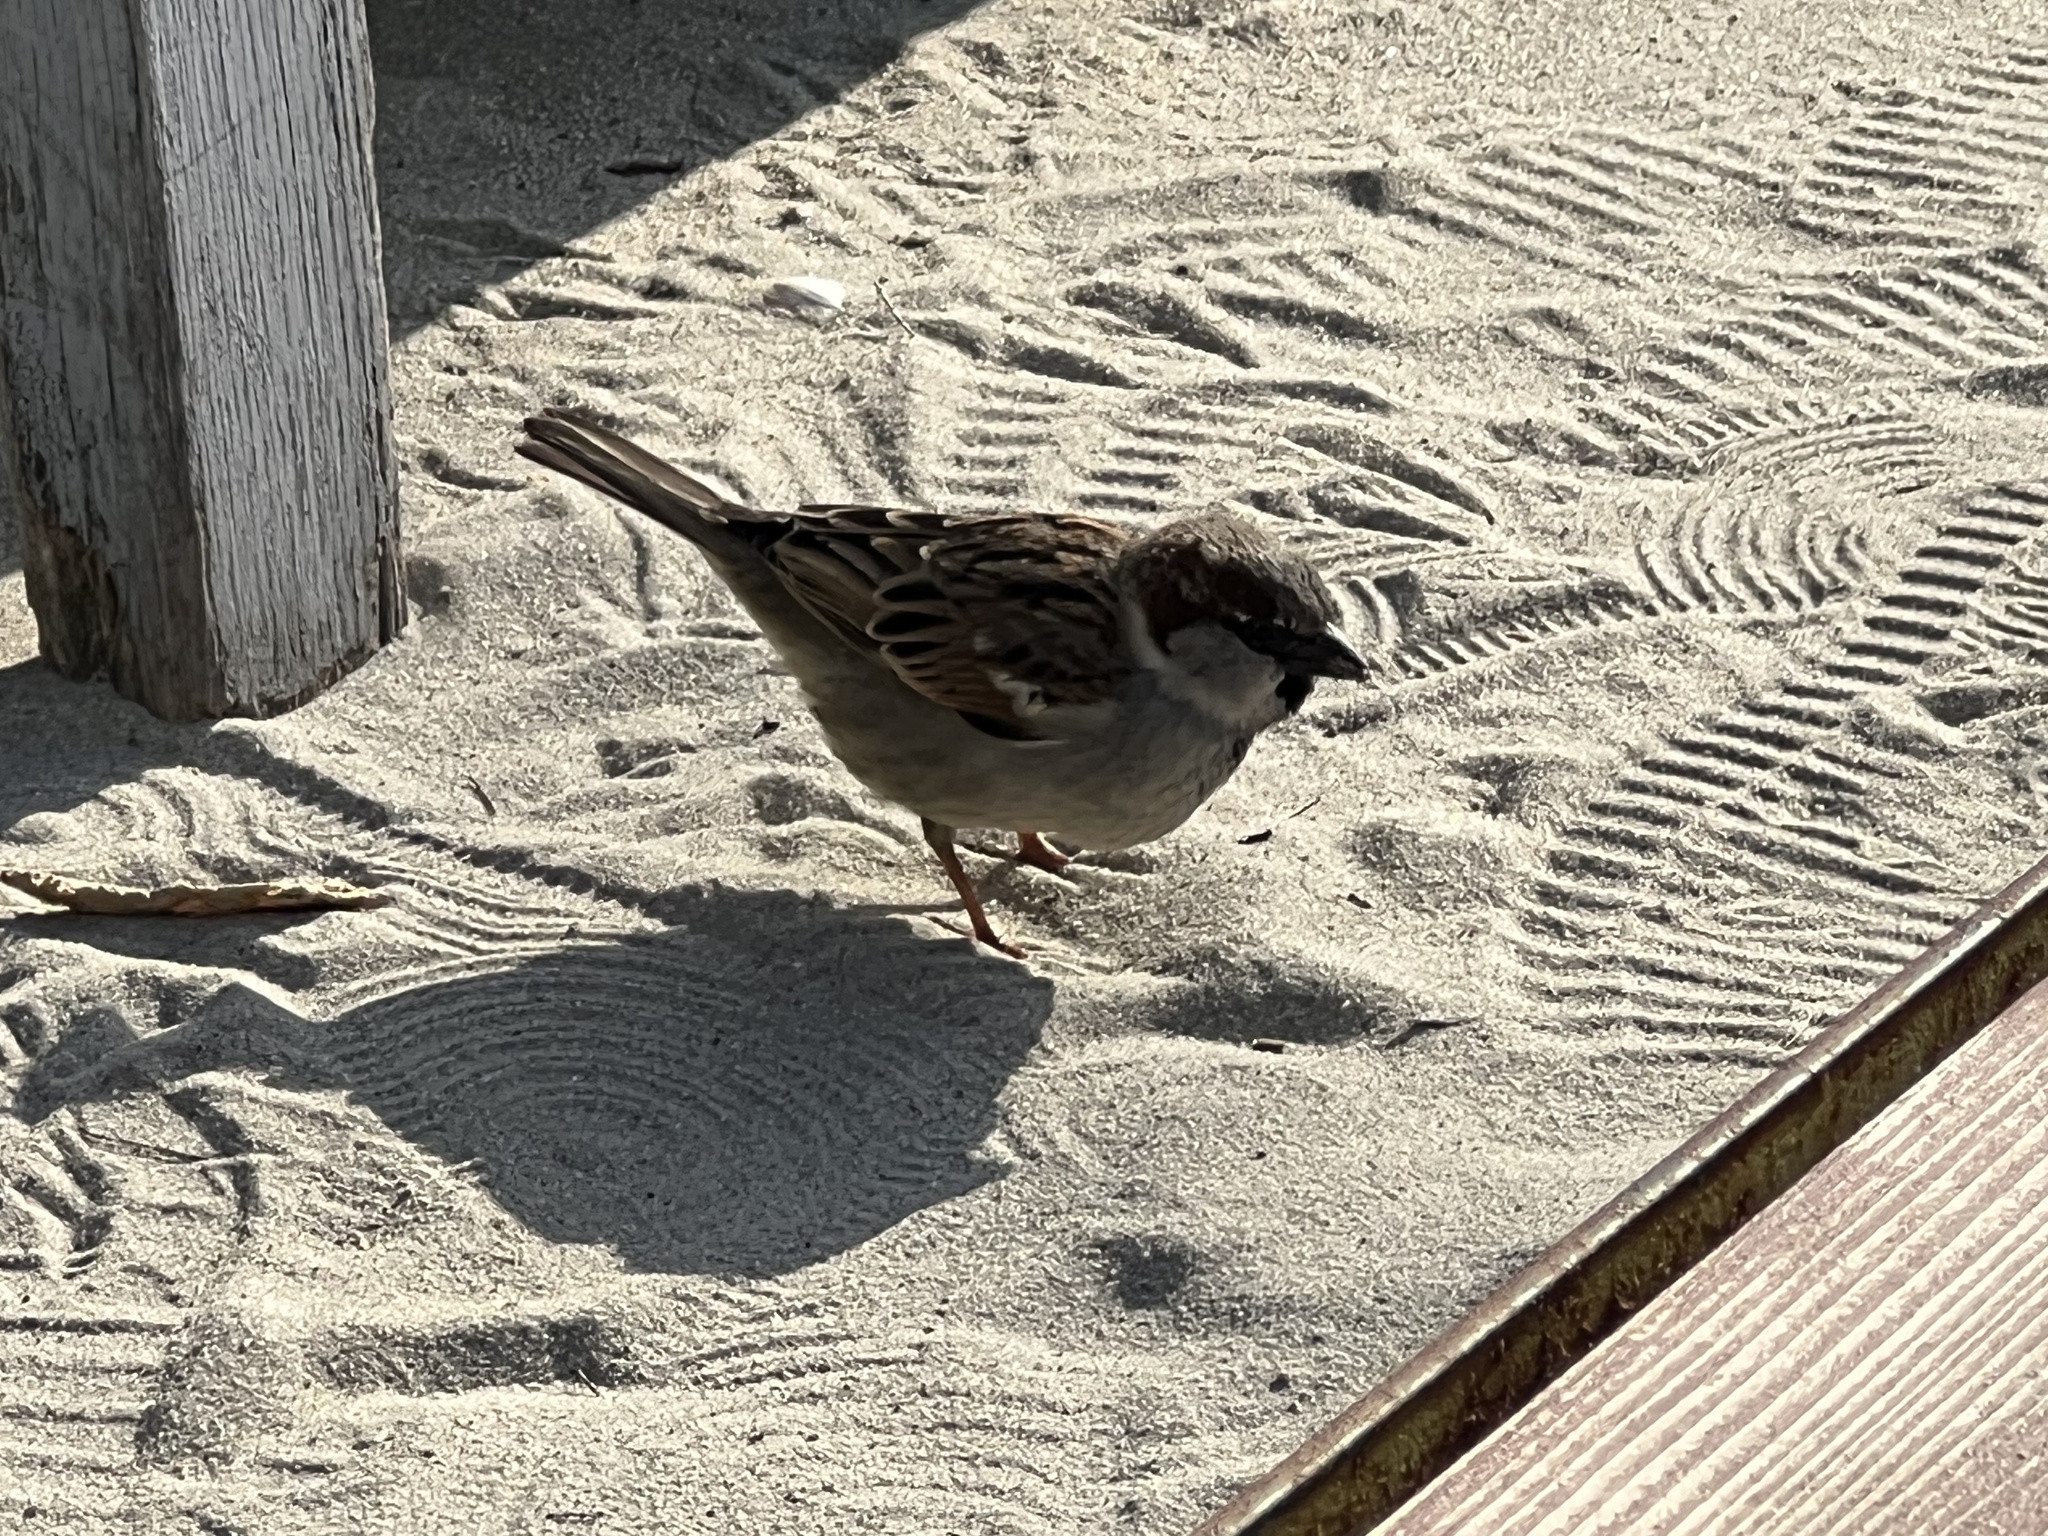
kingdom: Animalia
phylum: Chordata
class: Aves
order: Passeriformes
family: Passeridae
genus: Passer
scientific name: Passer domesticus
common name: House sparrow
